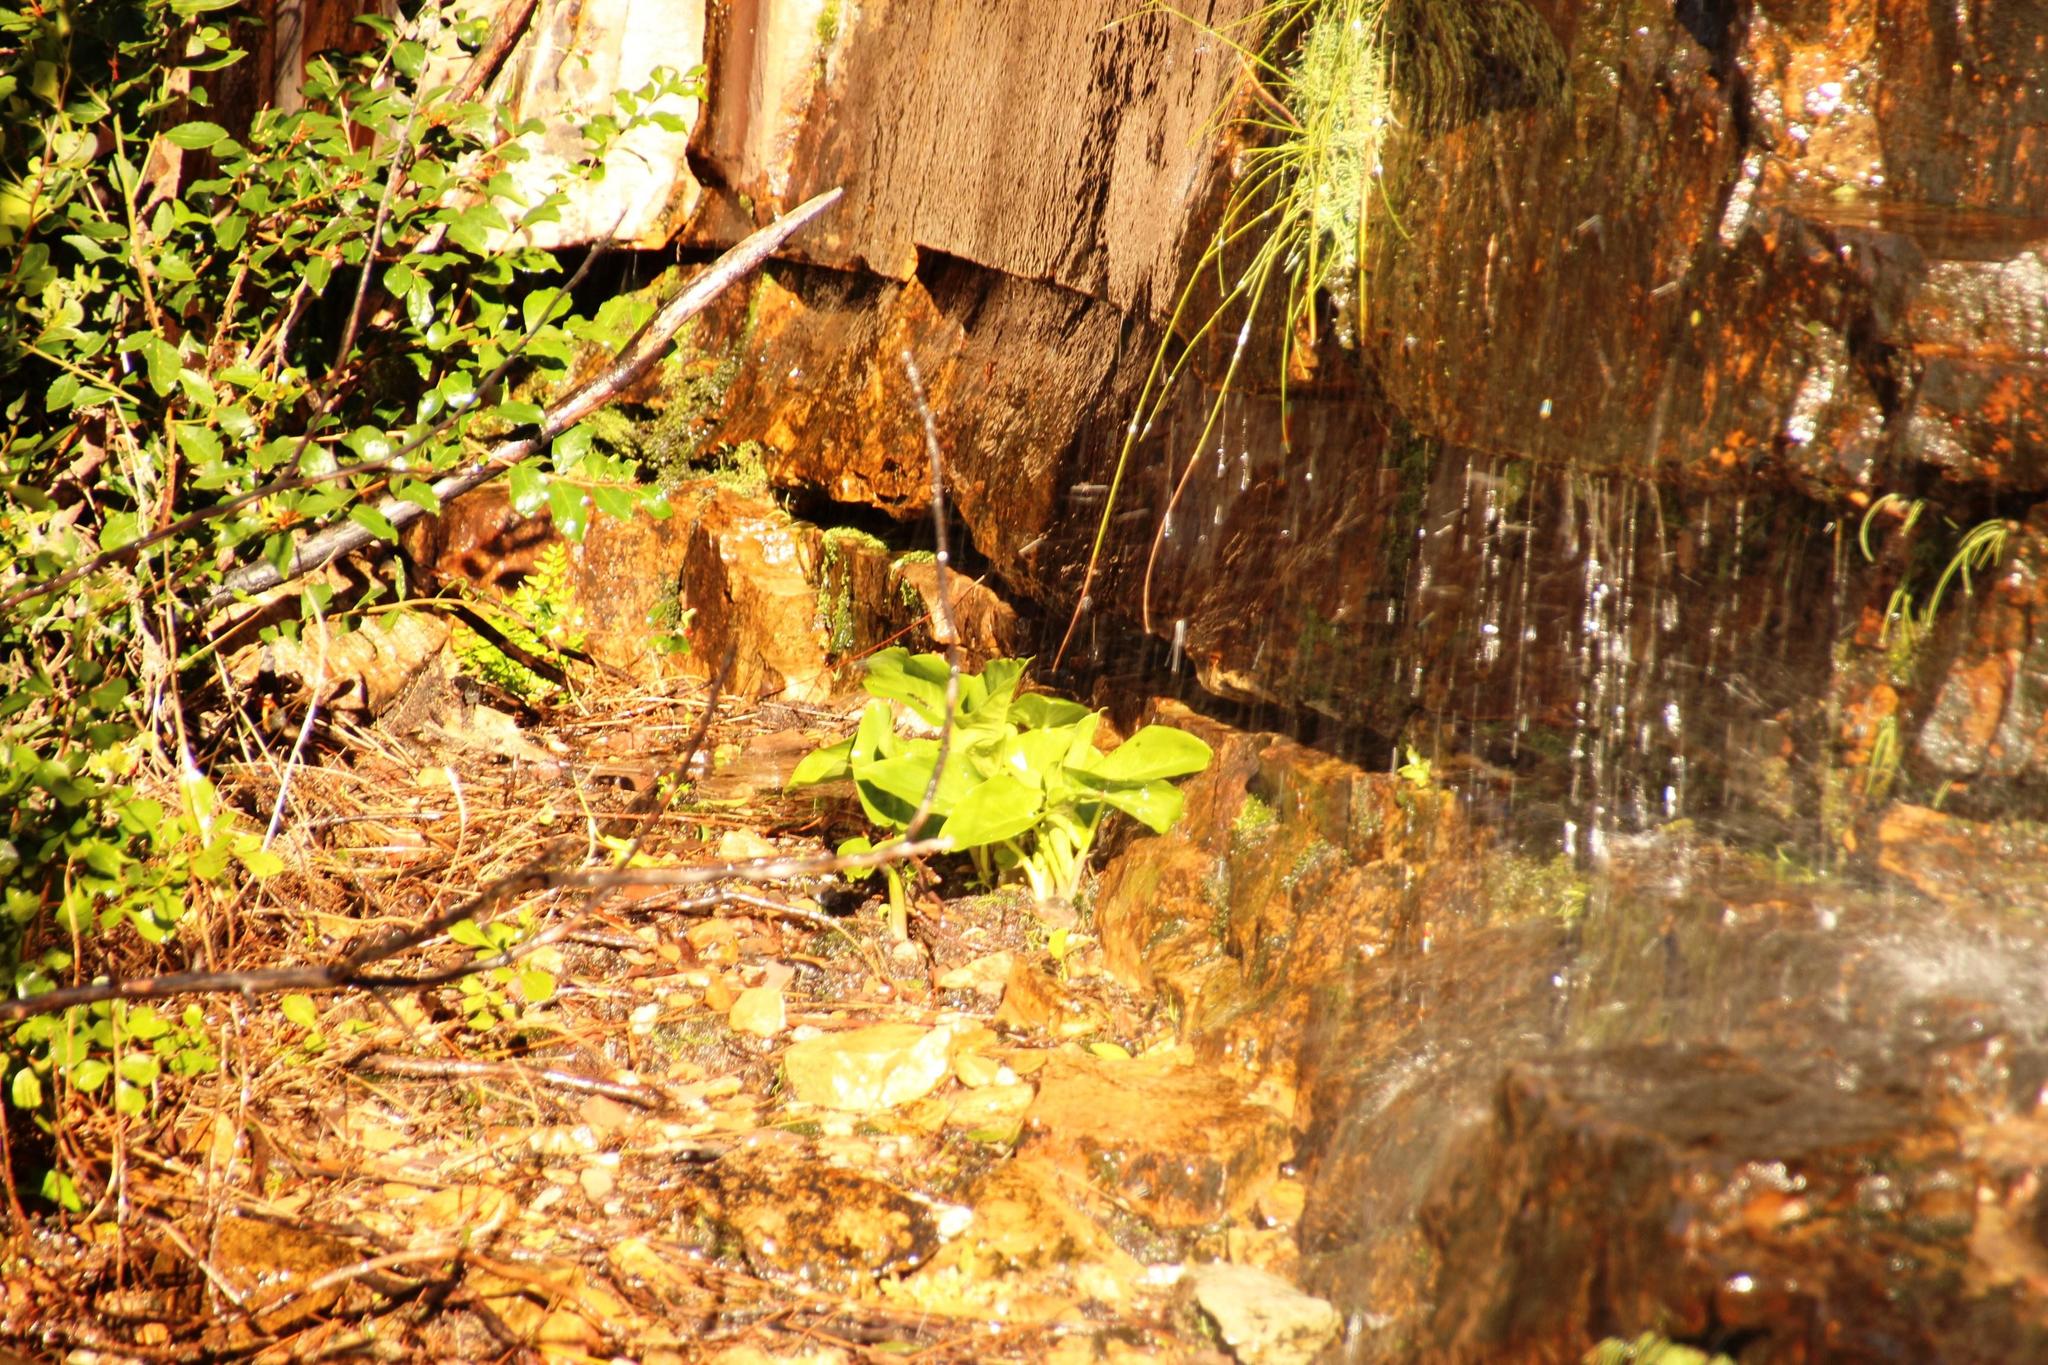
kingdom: Plantae
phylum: Tracheophyta
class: Liliopsida
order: Alismatales
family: Araceae
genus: Zantedeschia
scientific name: Zantedeschia aethiopica
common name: Altar-lily
